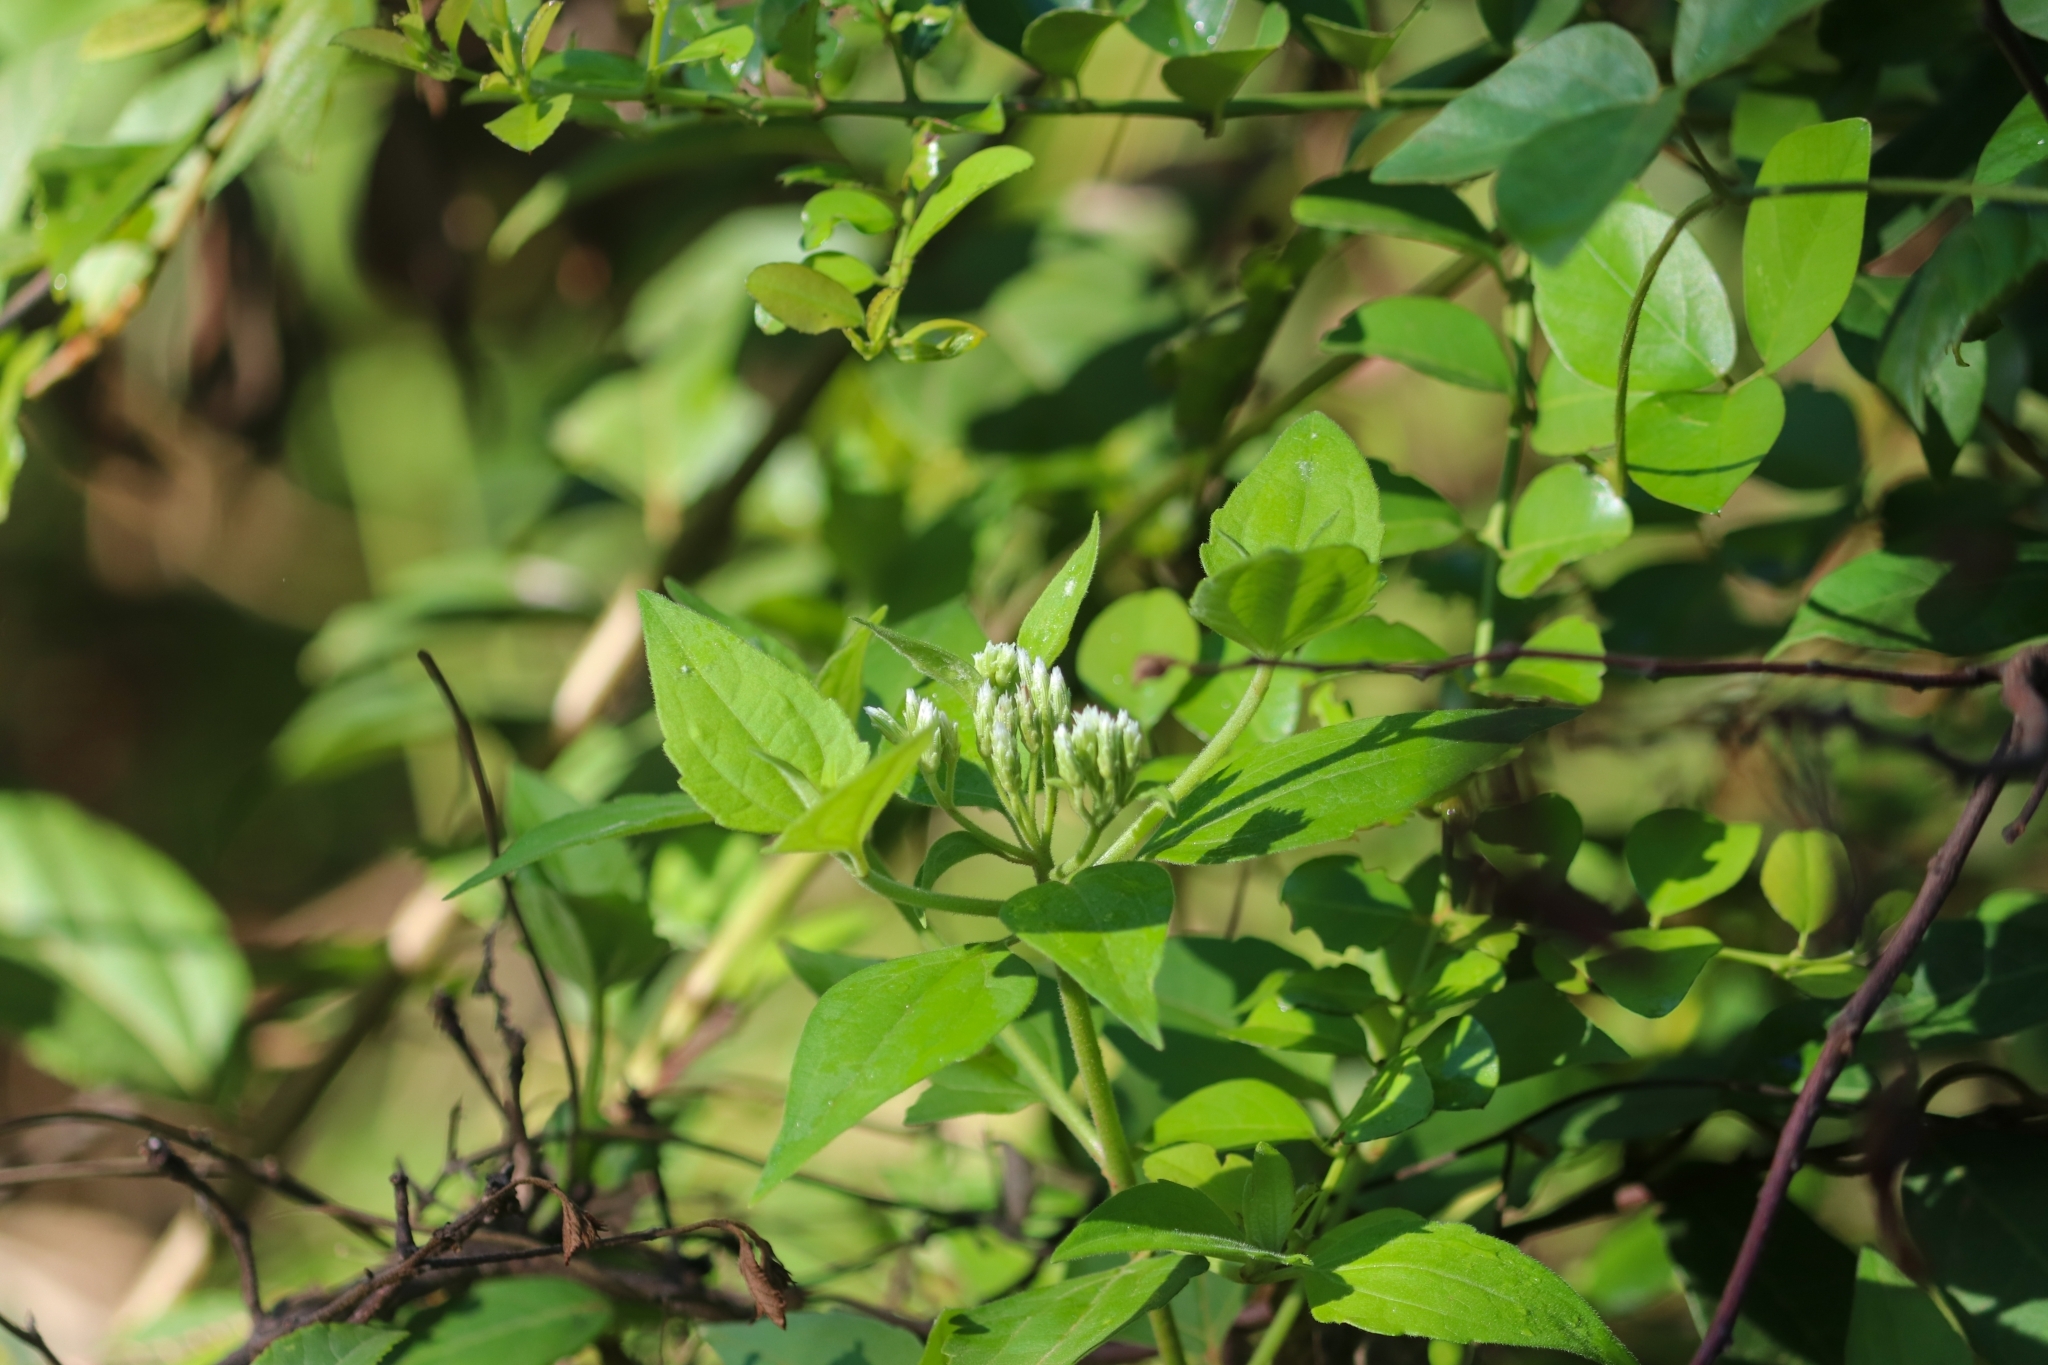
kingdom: Plantae
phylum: Tracheophyta
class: Magnoliopsida
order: Asterales
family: Asteraceae
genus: Chromolaena
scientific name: Chromolaena odorata
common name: Siamweed
